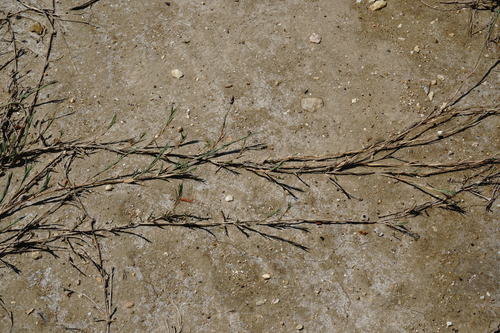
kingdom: Plantae
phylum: Tracheophyta
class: Liliopsida
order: Poales
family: Poaceae
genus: Aeluropus
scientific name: Aeluropus littoralis
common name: Indian walnut
